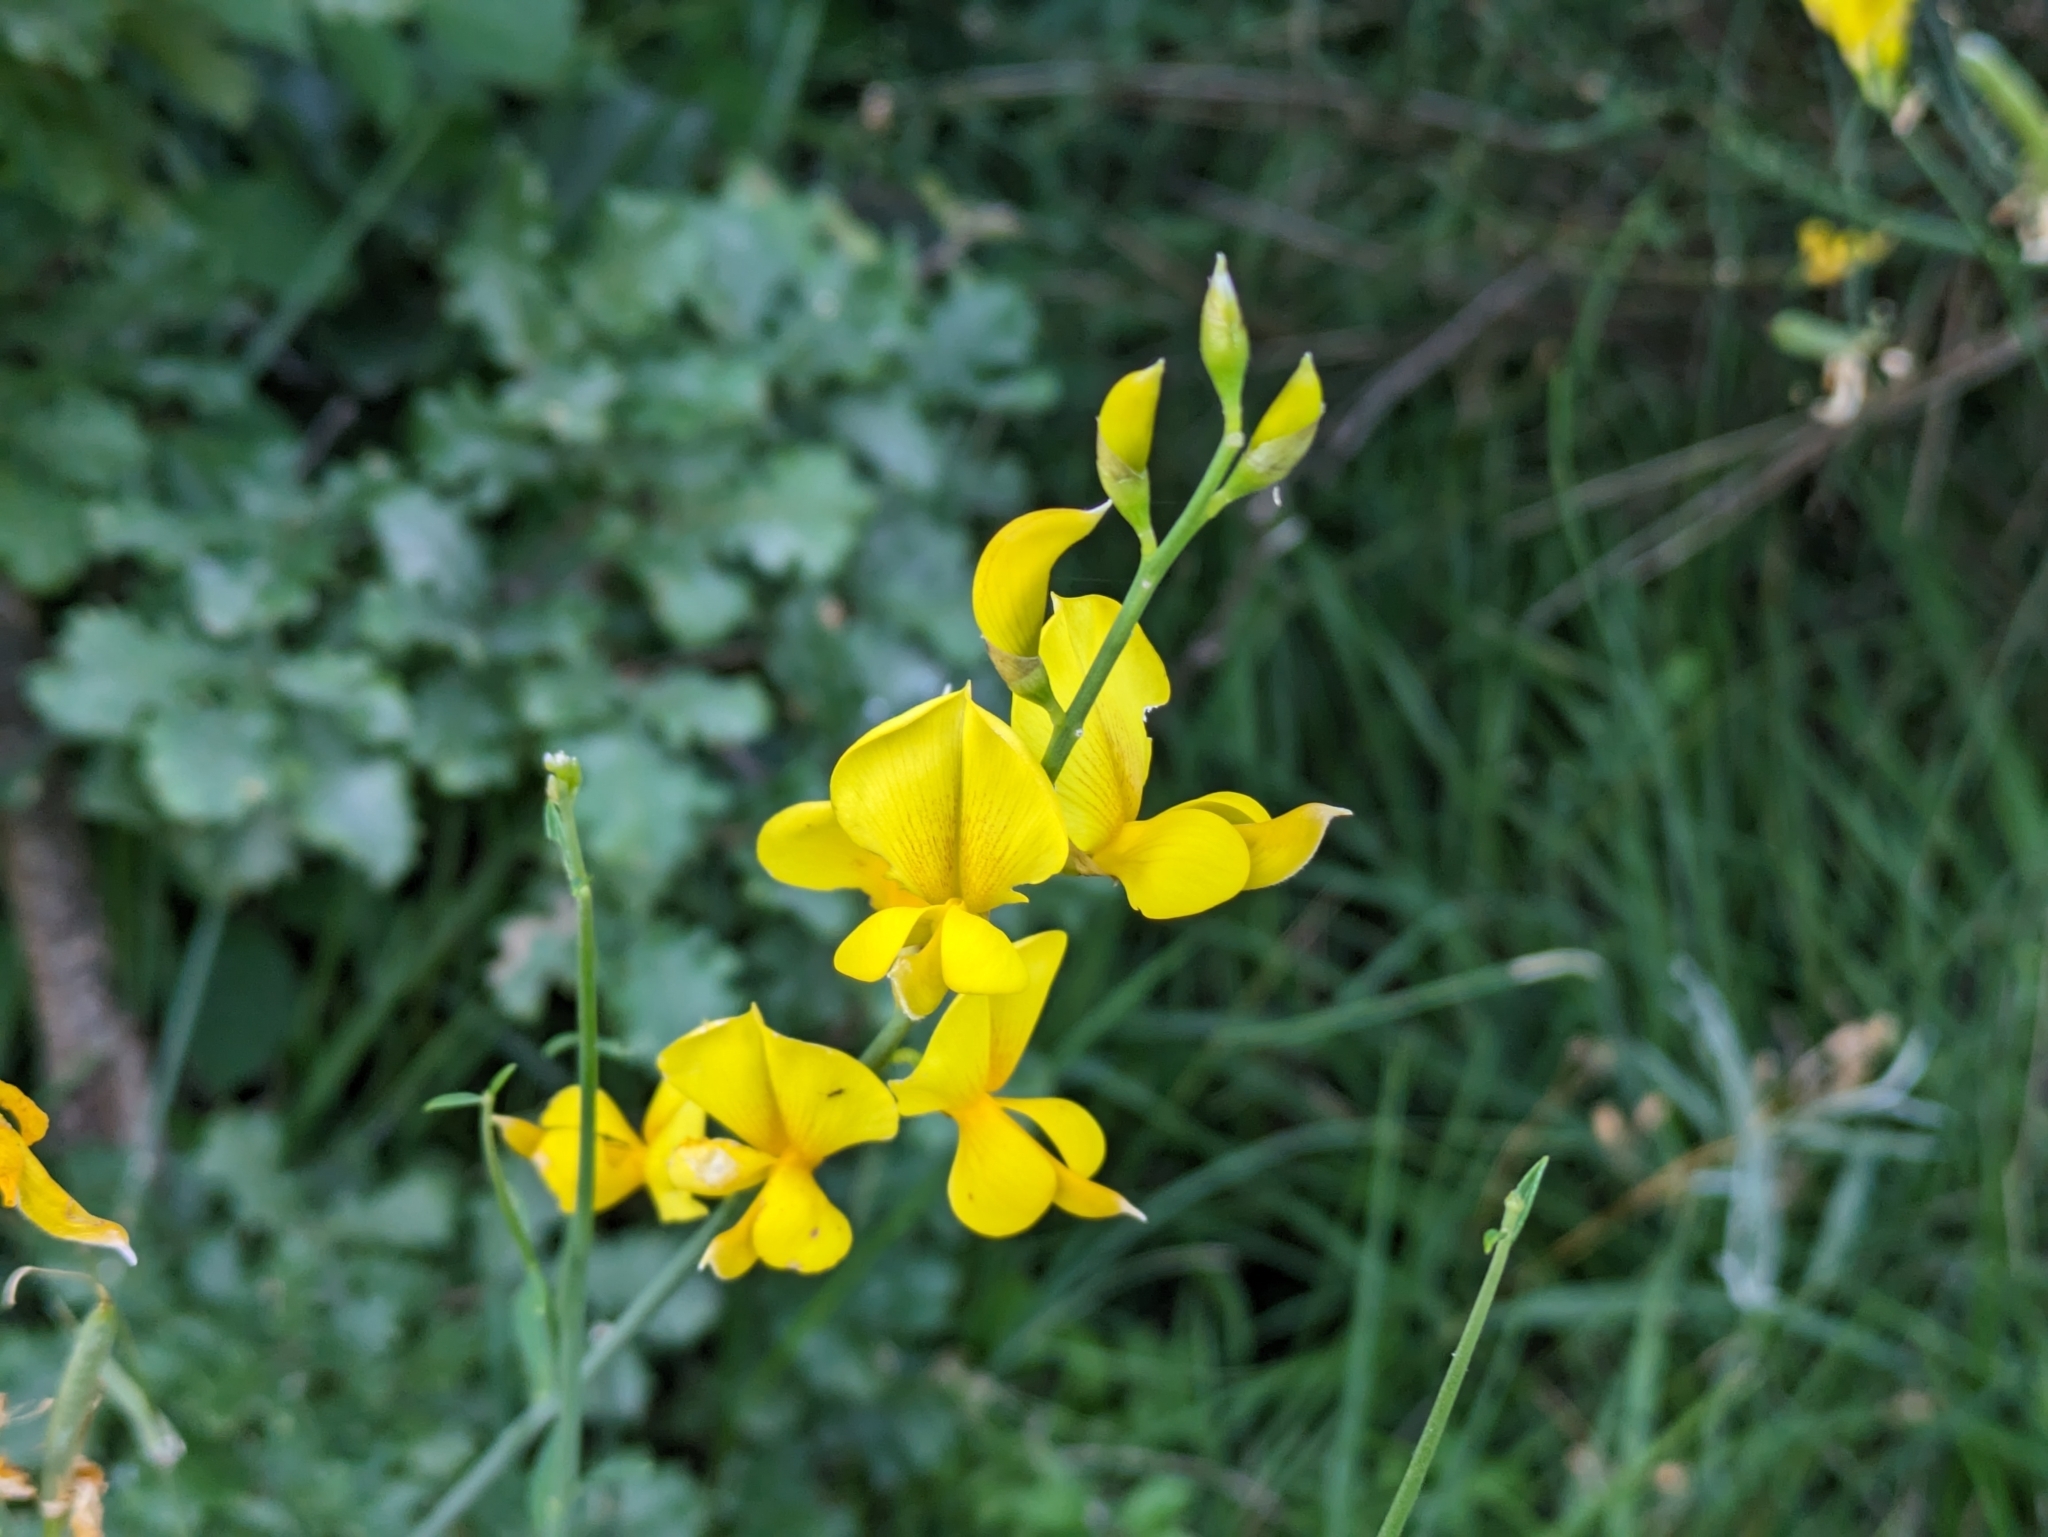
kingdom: Plantae
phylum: Tracheophyta
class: Magnoliopsida
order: Fabales
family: Fabaceae
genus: Spartium
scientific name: Spartium junceum
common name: Spanish broom
